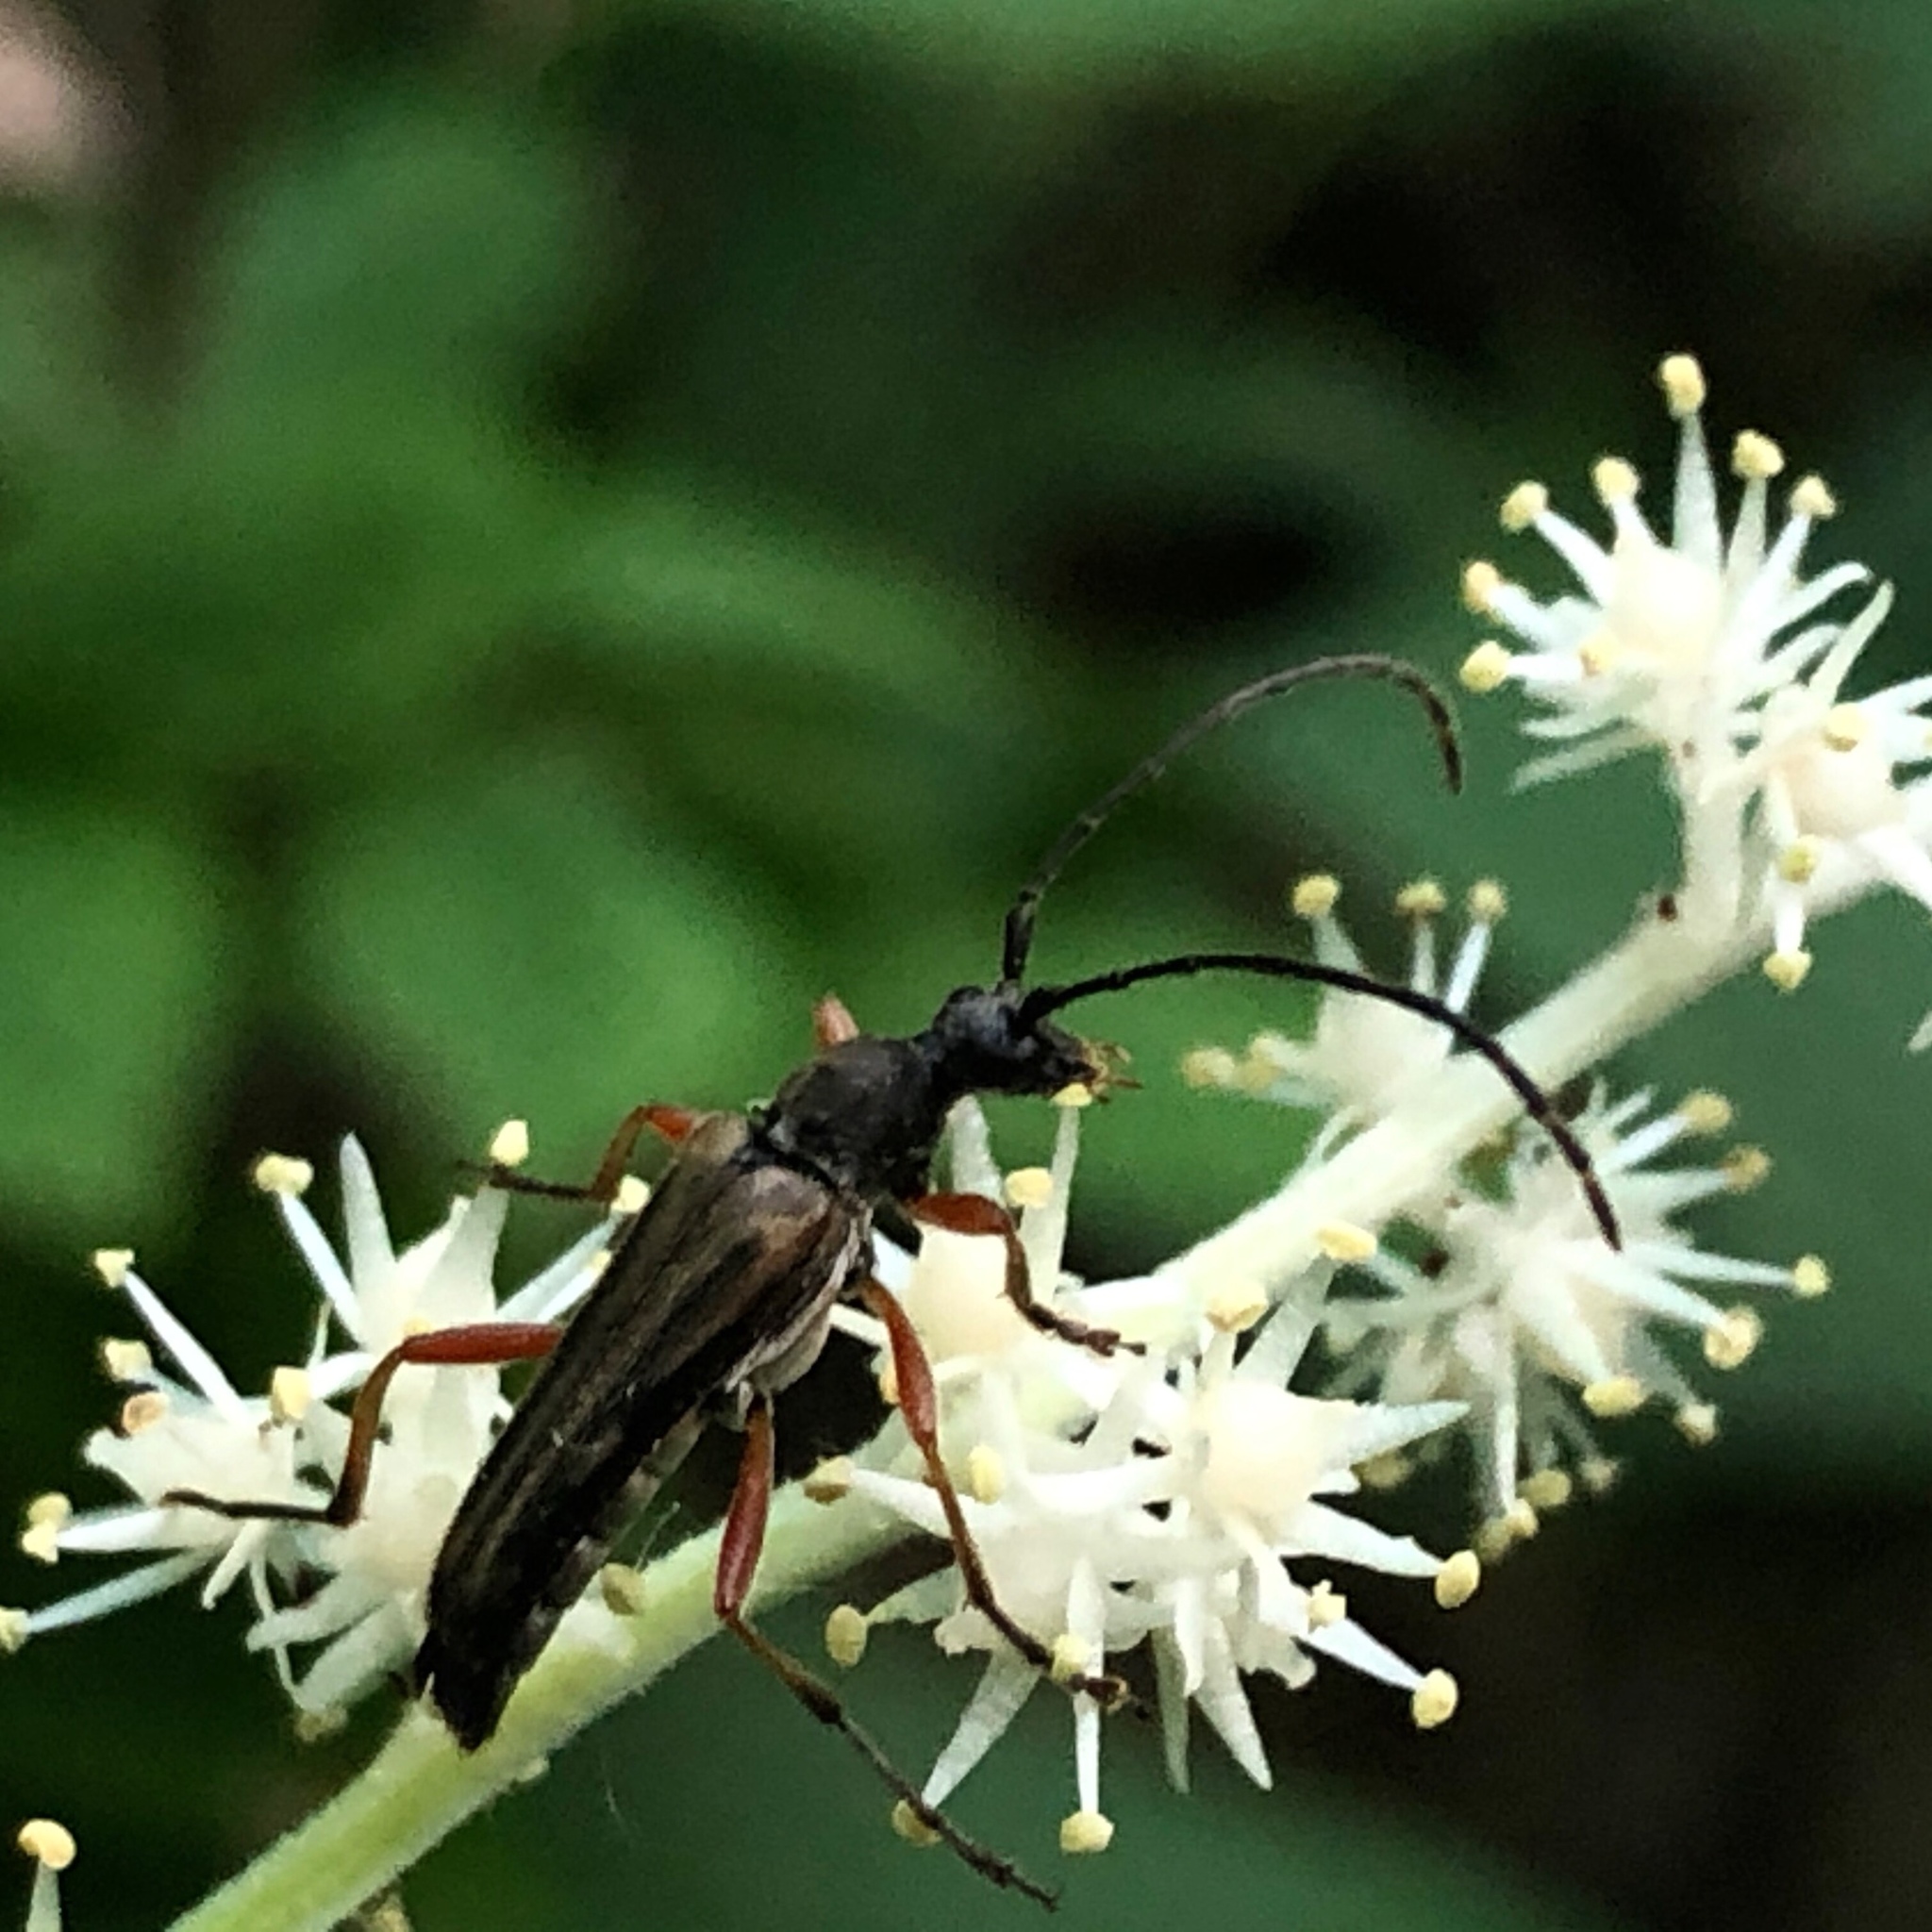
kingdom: Animalia
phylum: Arthropoda
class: Insecta
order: Coleoptera
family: Cerambycidae
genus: Analeptura
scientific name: Analeptura lineola
